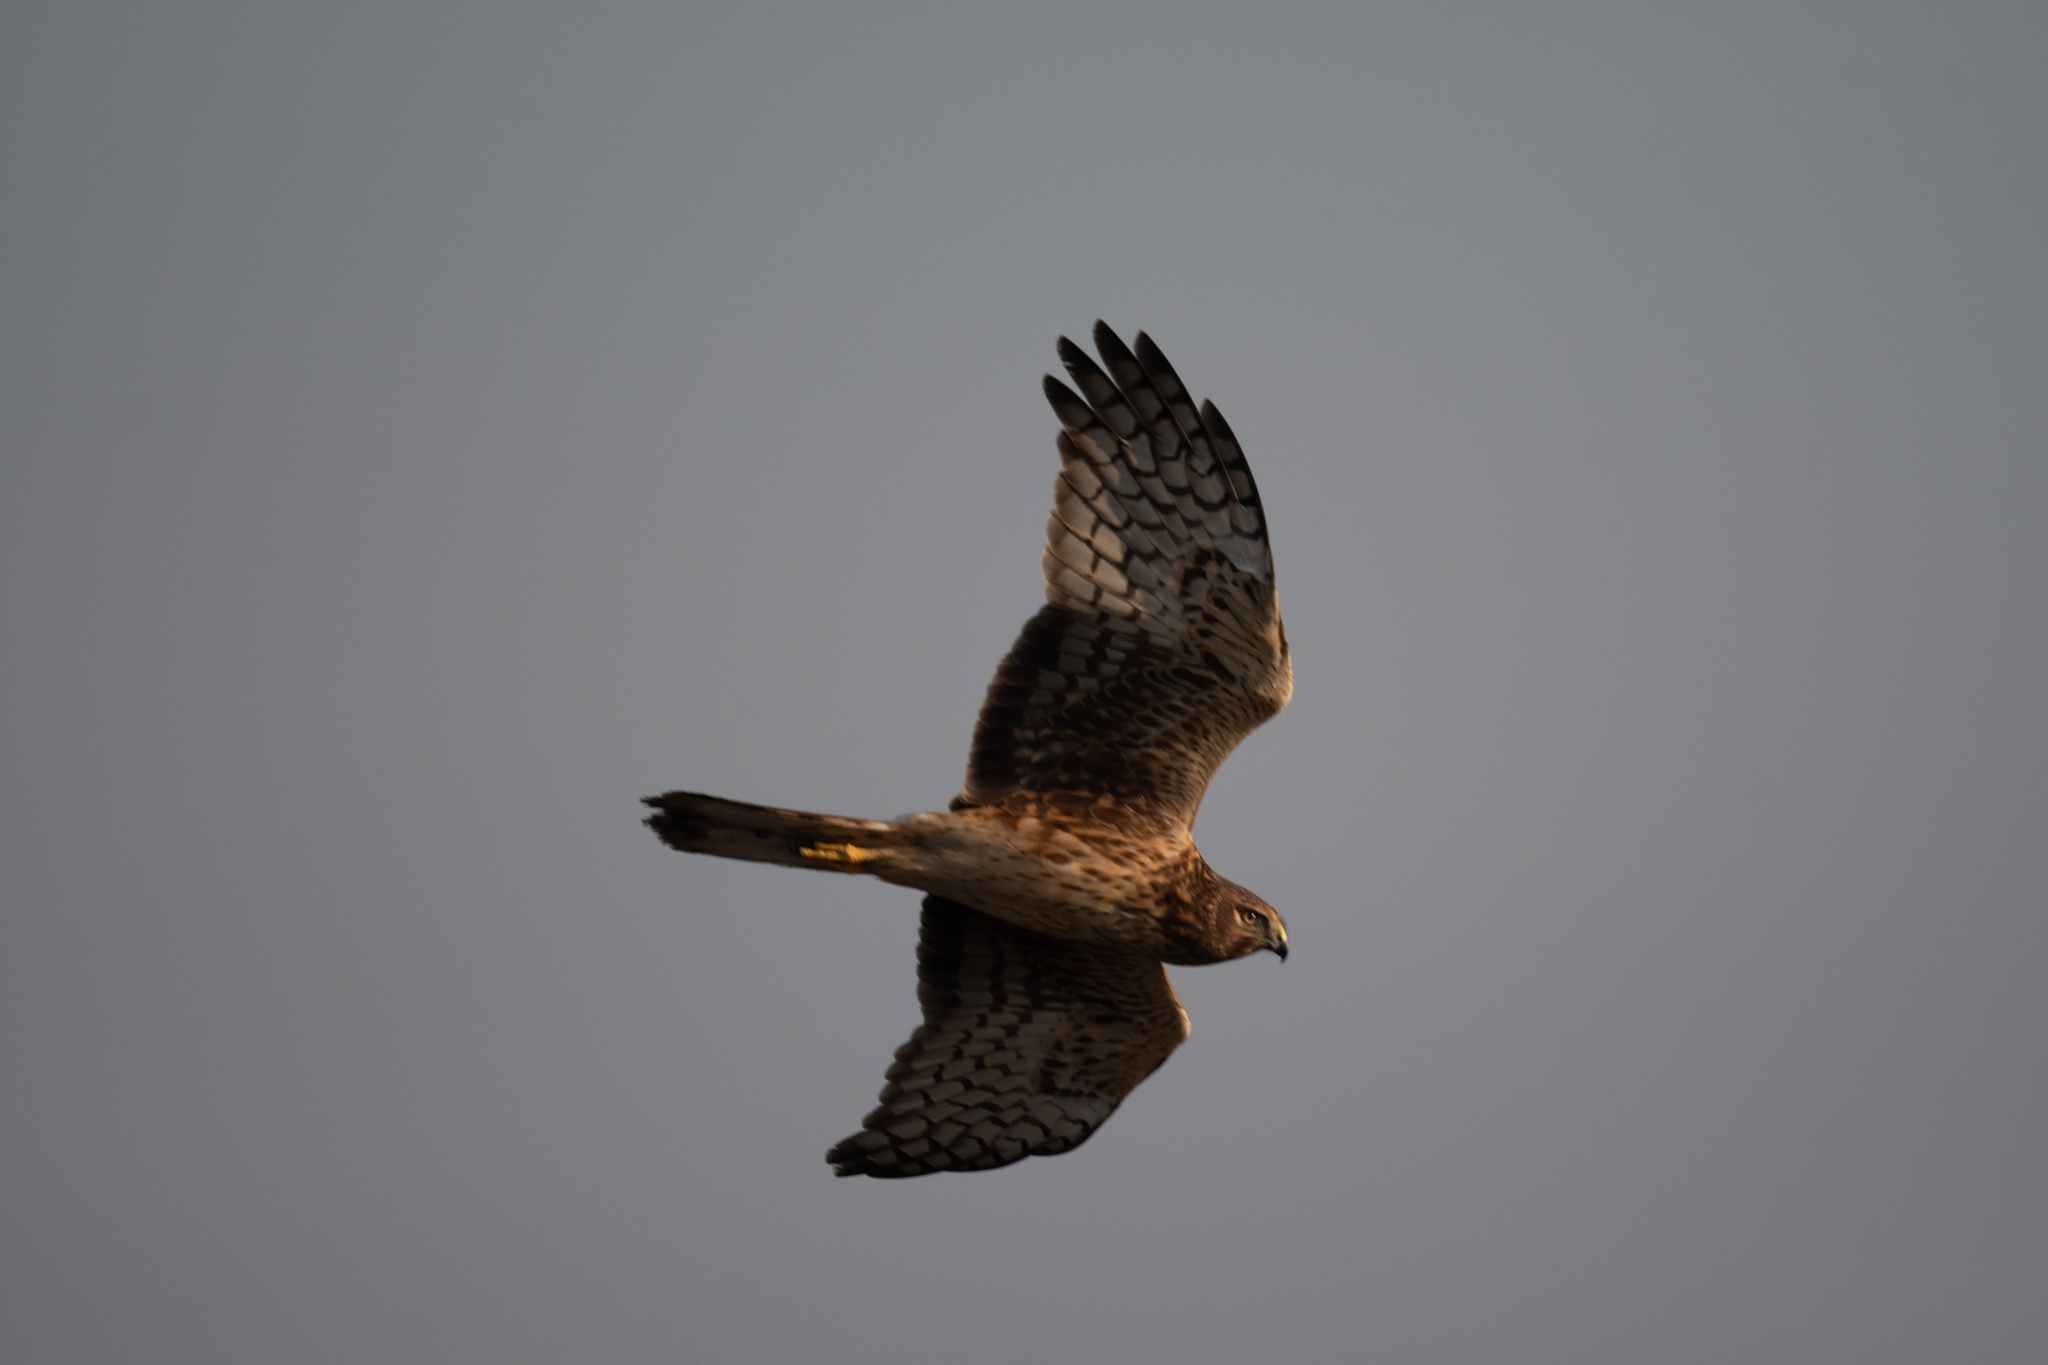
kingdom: Animalia
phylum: Chordata
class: Aves
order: Accipitriformes
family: Accipitridae
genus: Circus
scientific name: Circus cyaneus
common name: Hen harrier
